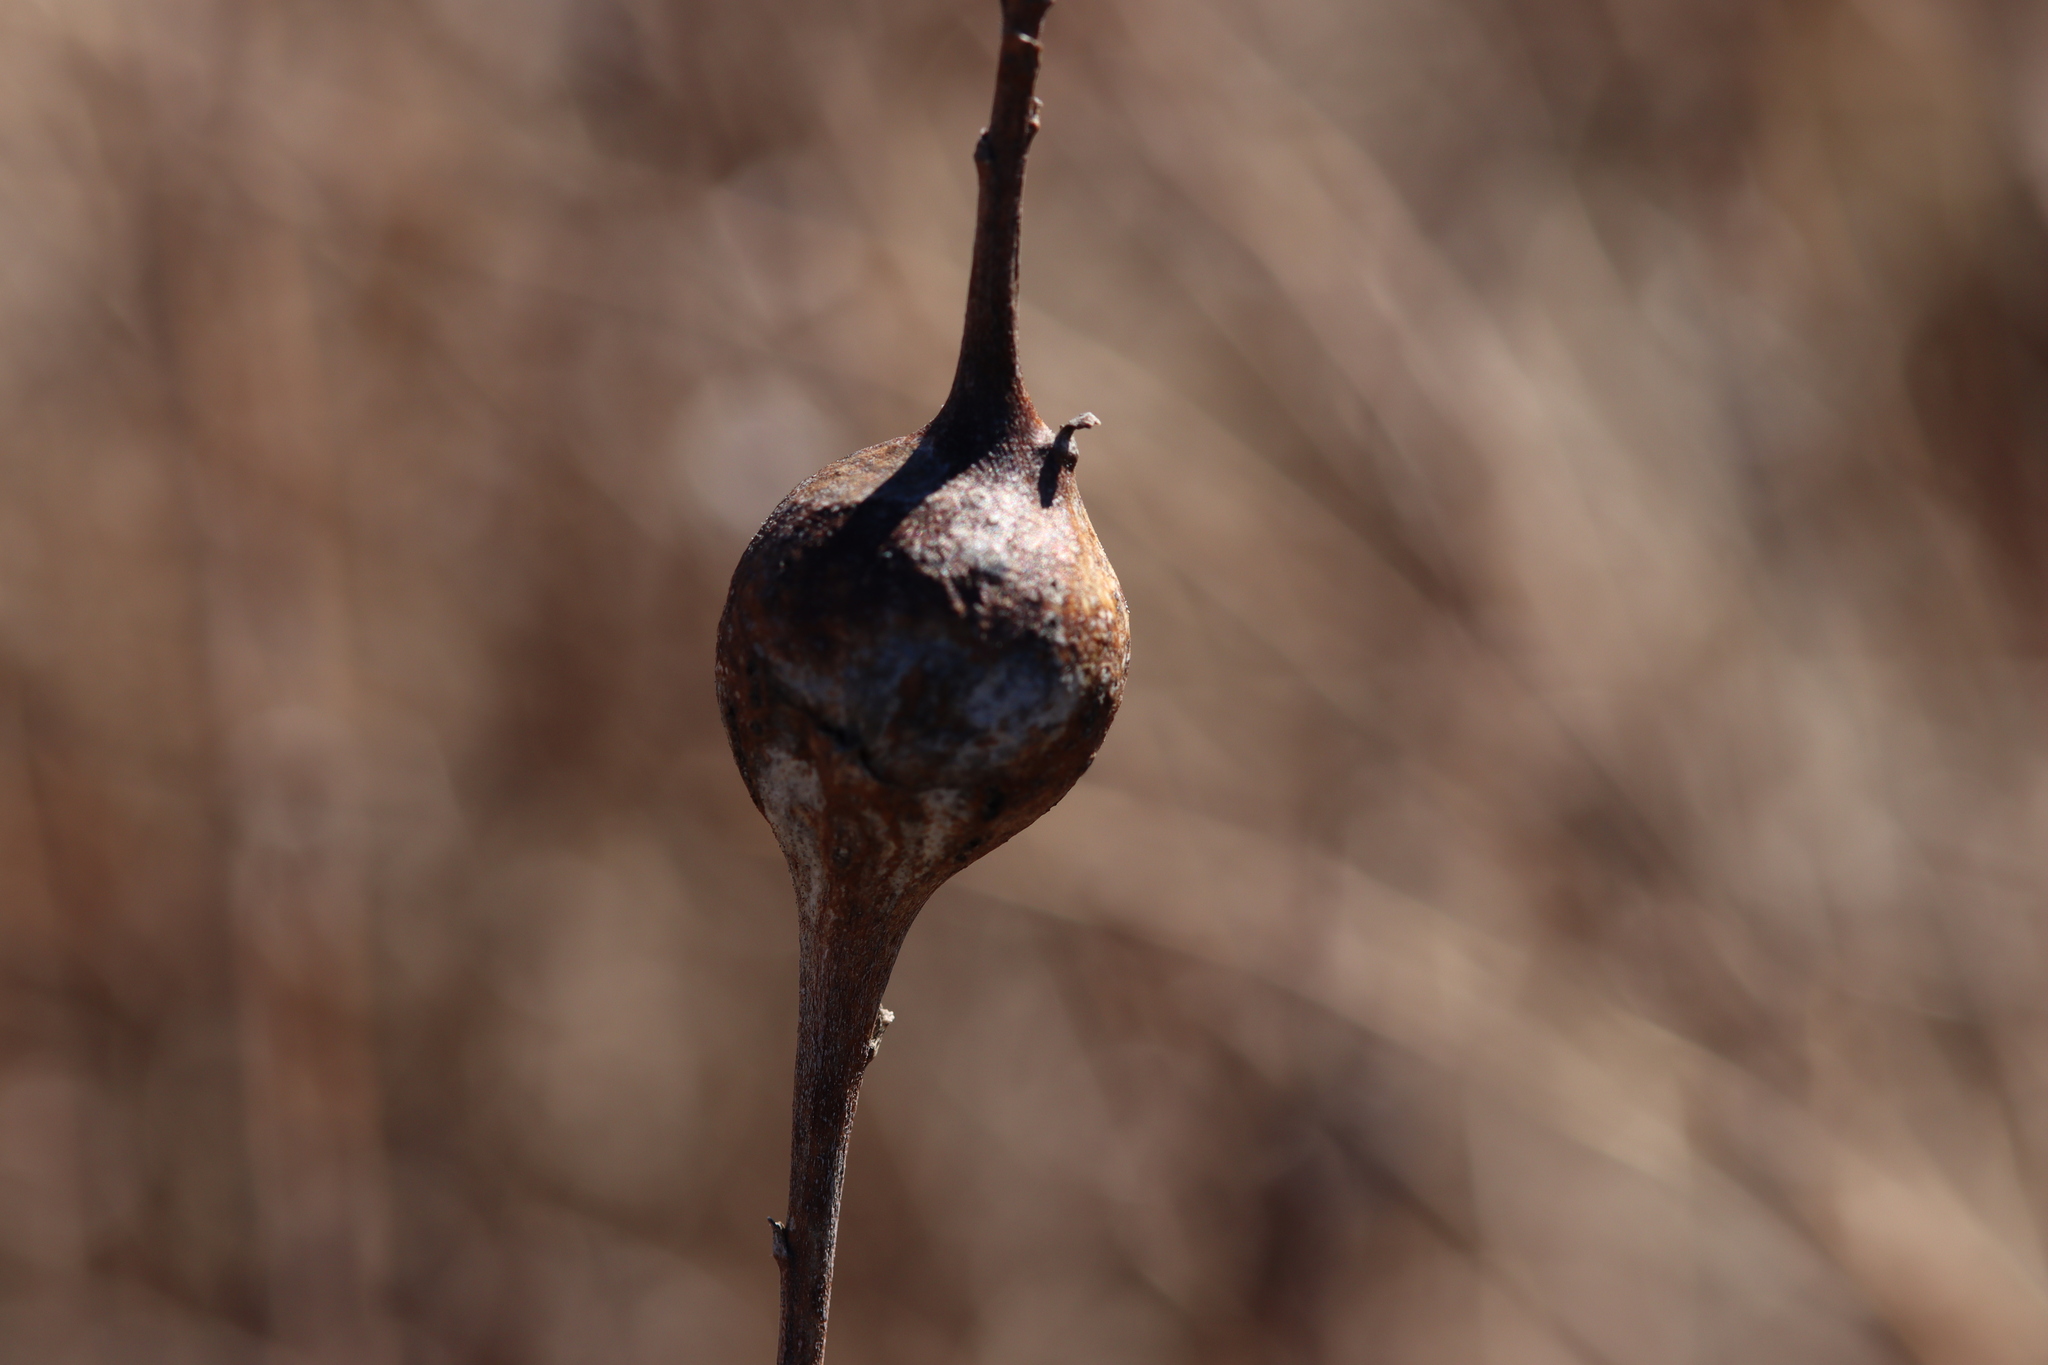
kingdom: Animalia
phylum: Arthropoda
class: Insecta
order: Diptera
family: Tephritidae
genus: Eurosta
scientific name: Eurosta solidaginis
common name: Goldenrod gall fly
